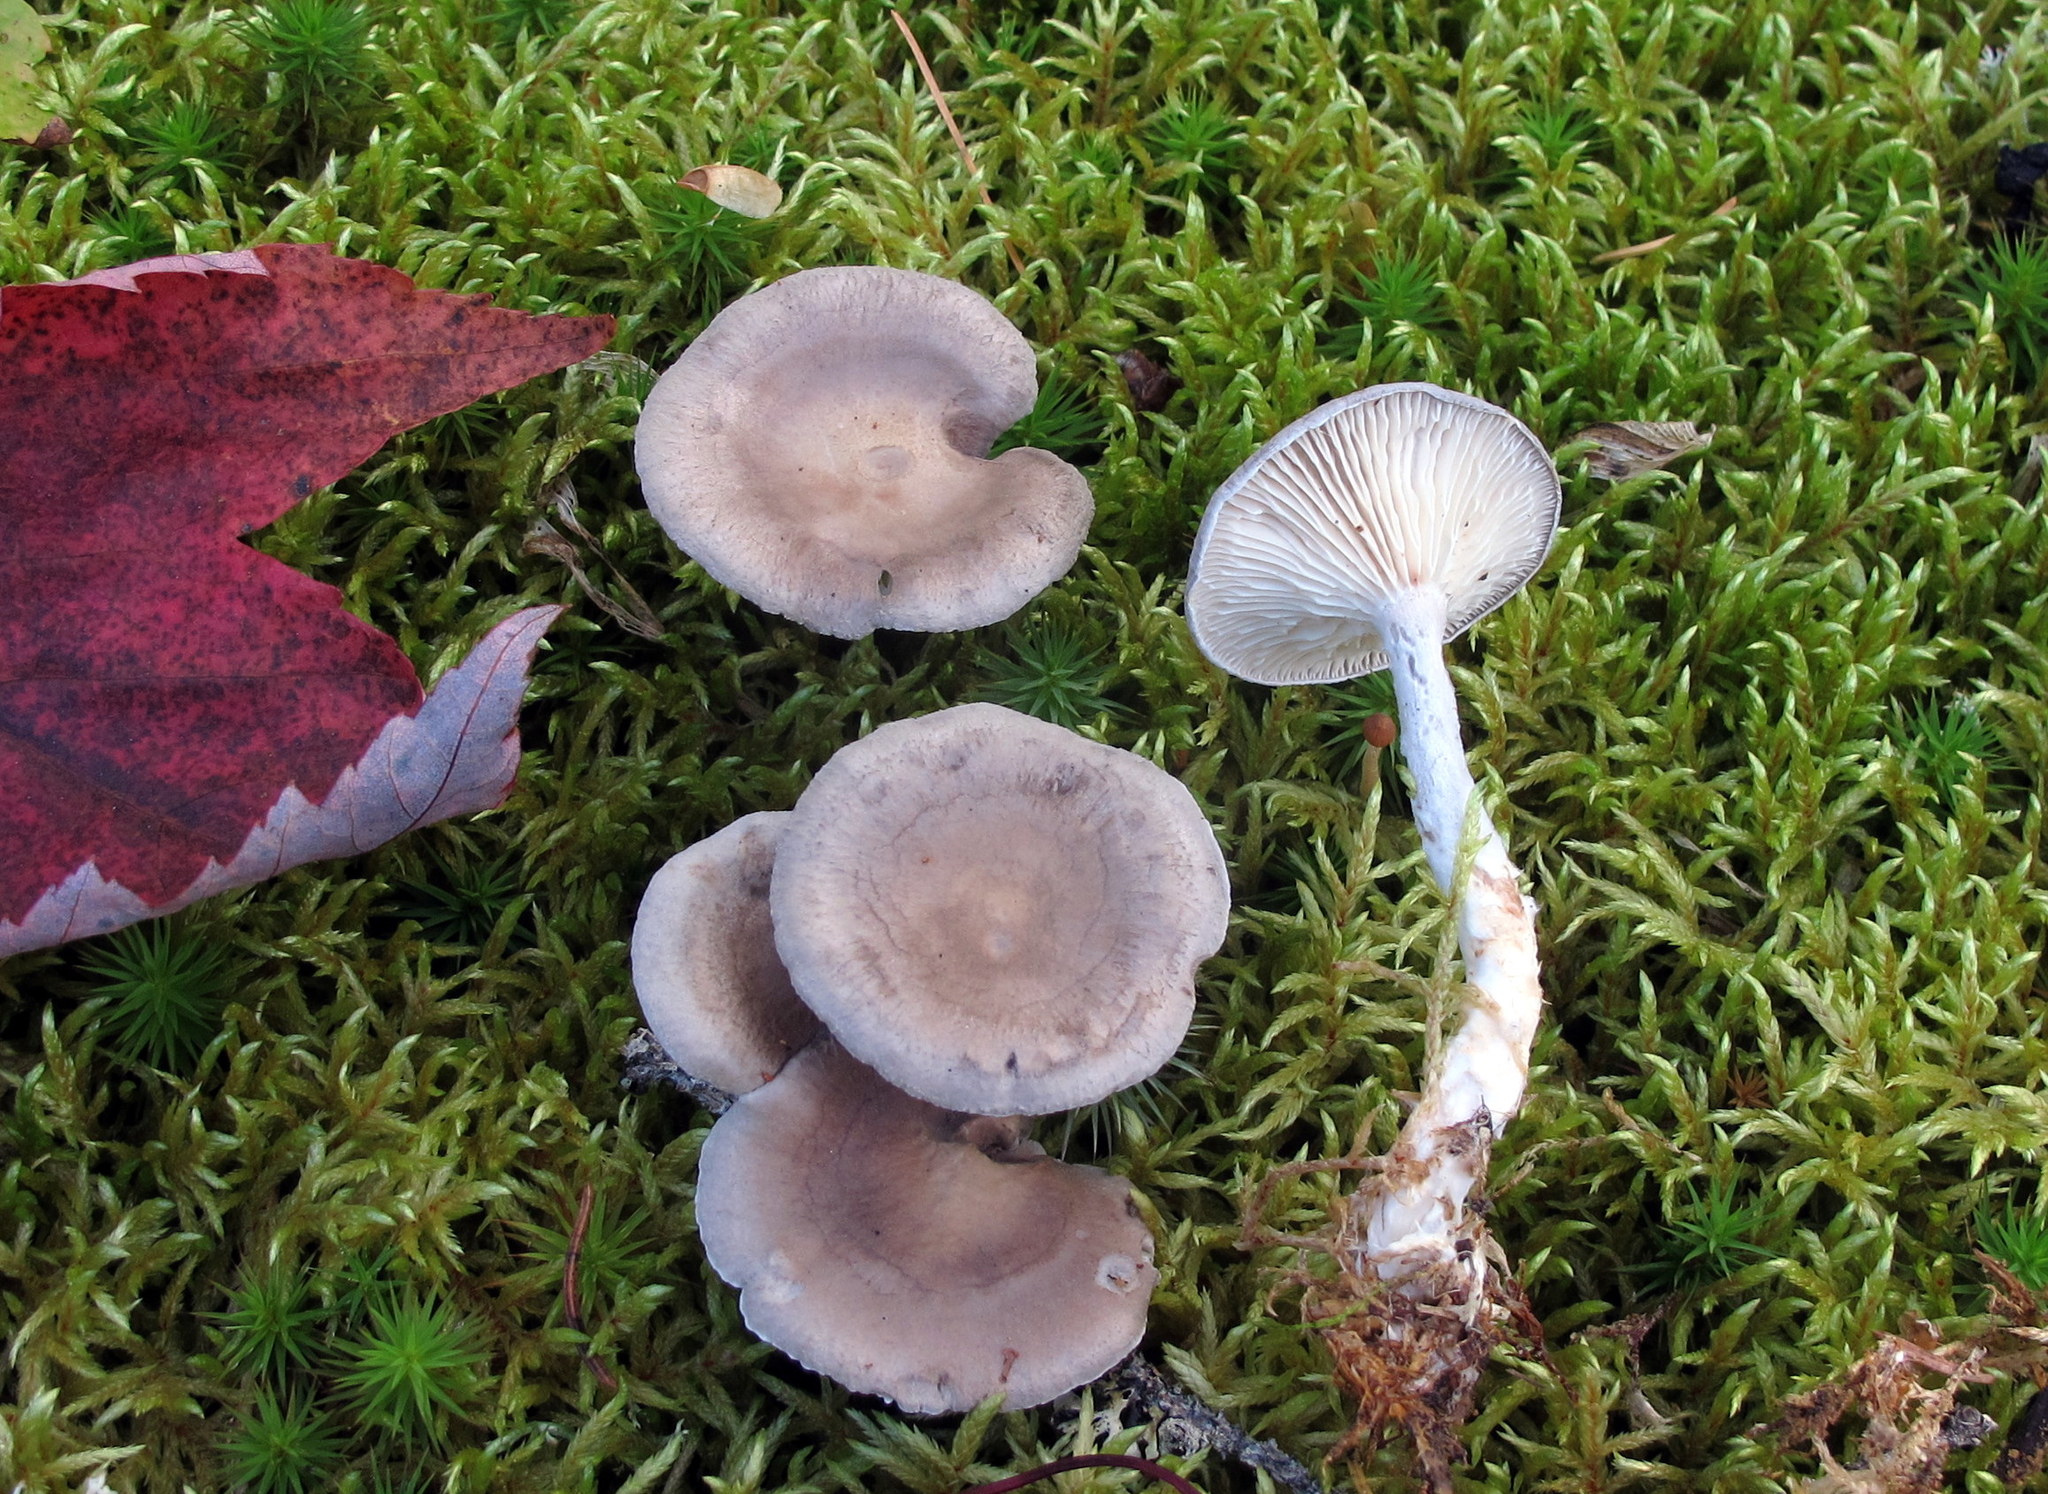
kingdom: Fungi
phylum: Basidiomycota
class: Agaricomycetes
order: Agaricales
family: Hygrophoraceae
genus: Cantharellula
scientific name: Cantharellula umbonata
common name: The humpback
